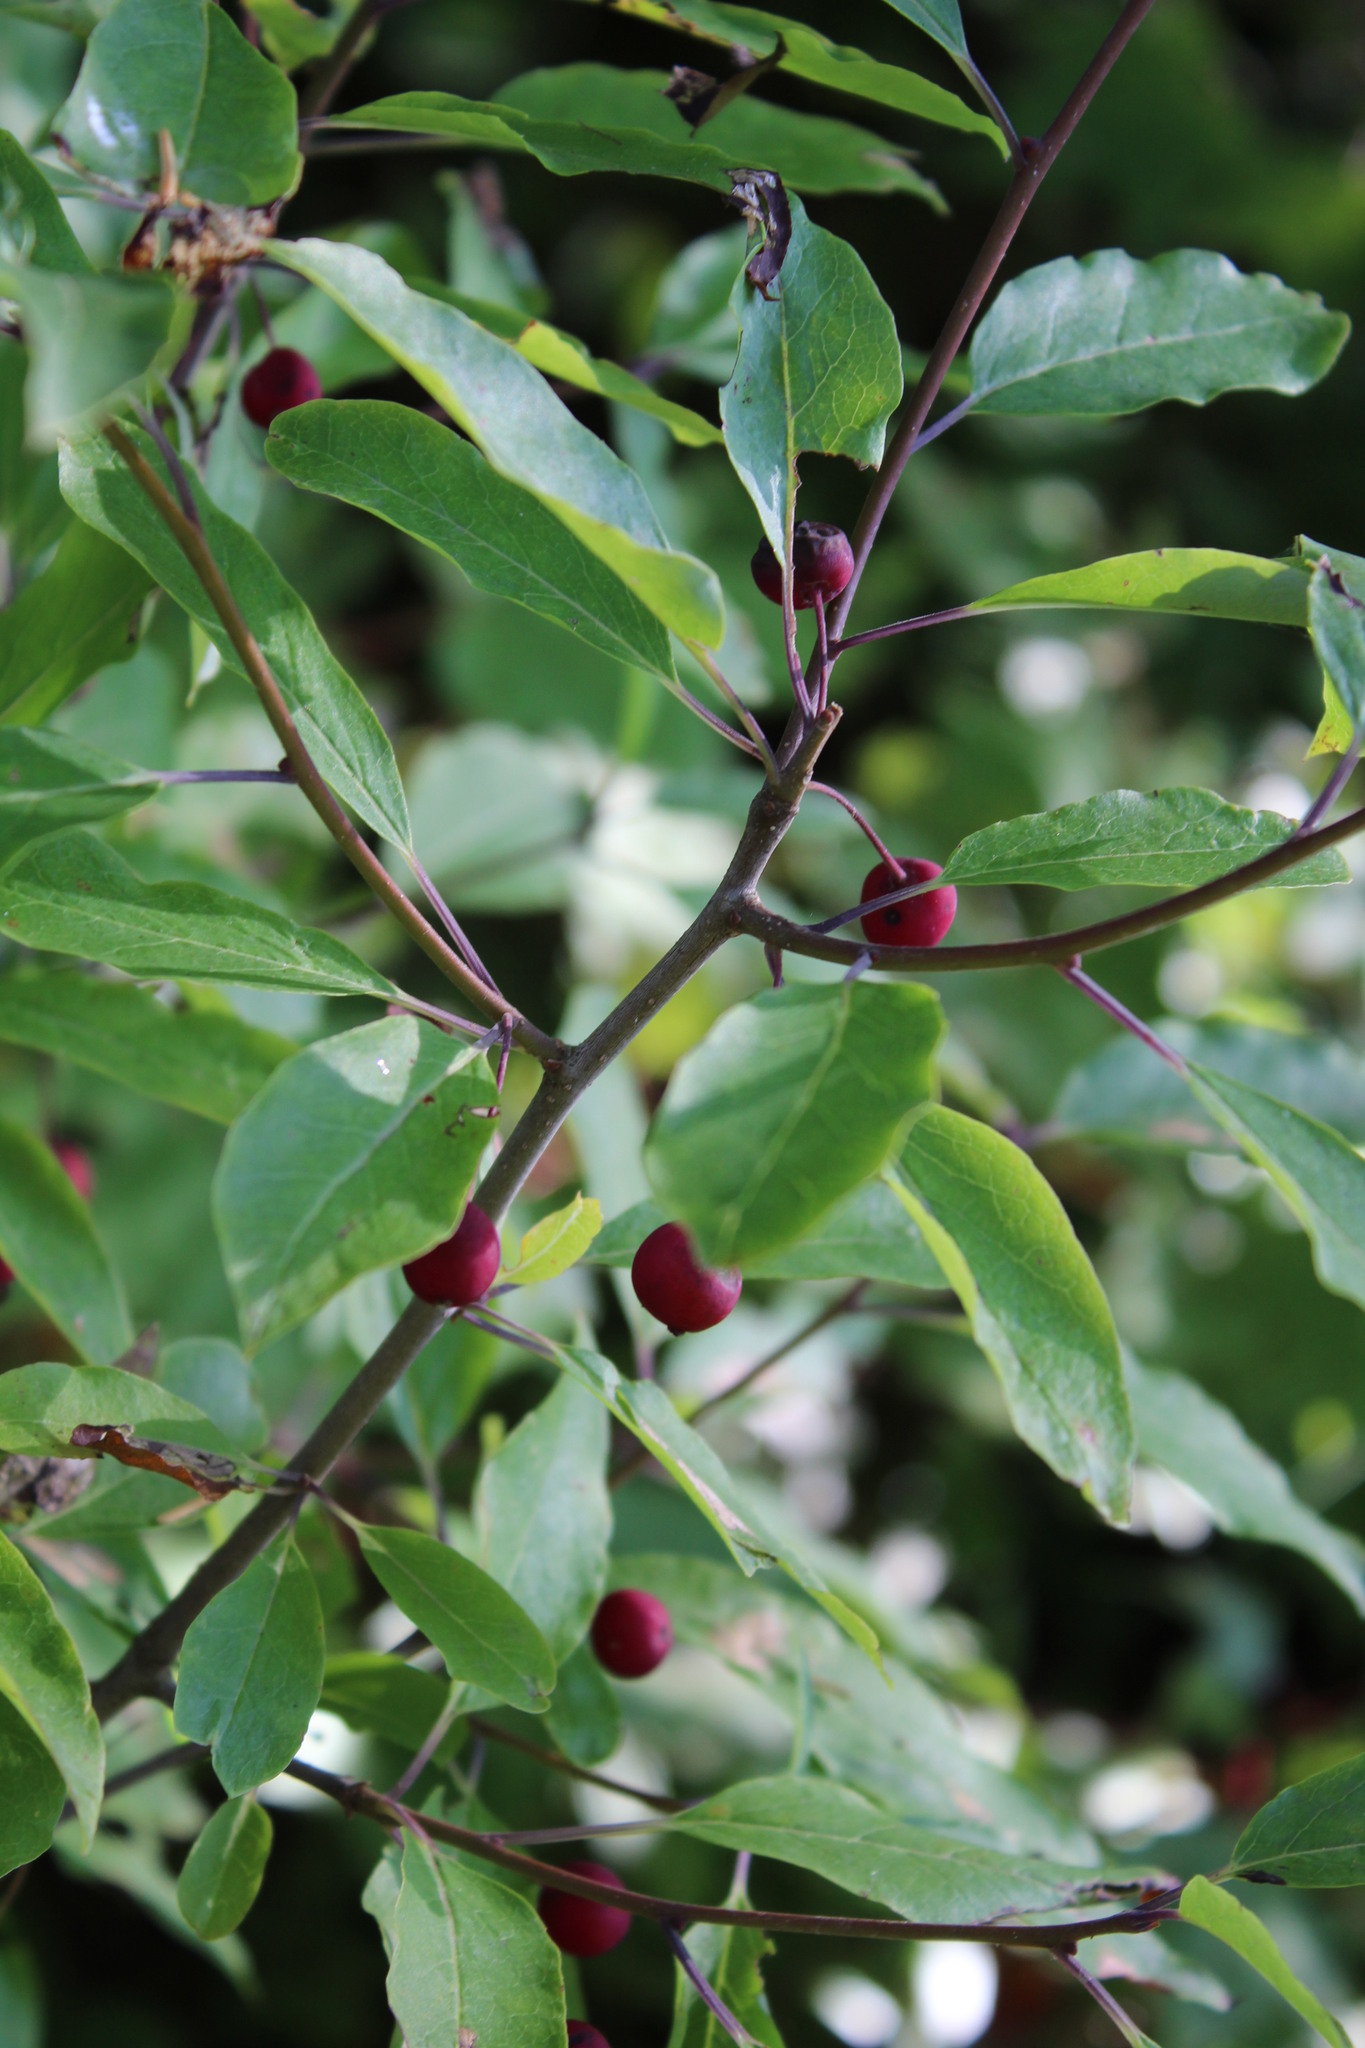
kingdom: Plantae
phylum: Tracheophyta
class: Magnoliopsida
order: Aquifoliales
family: Aquifoliaceae
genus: Ilex
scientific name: Ilex mucronata
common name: Catberry
